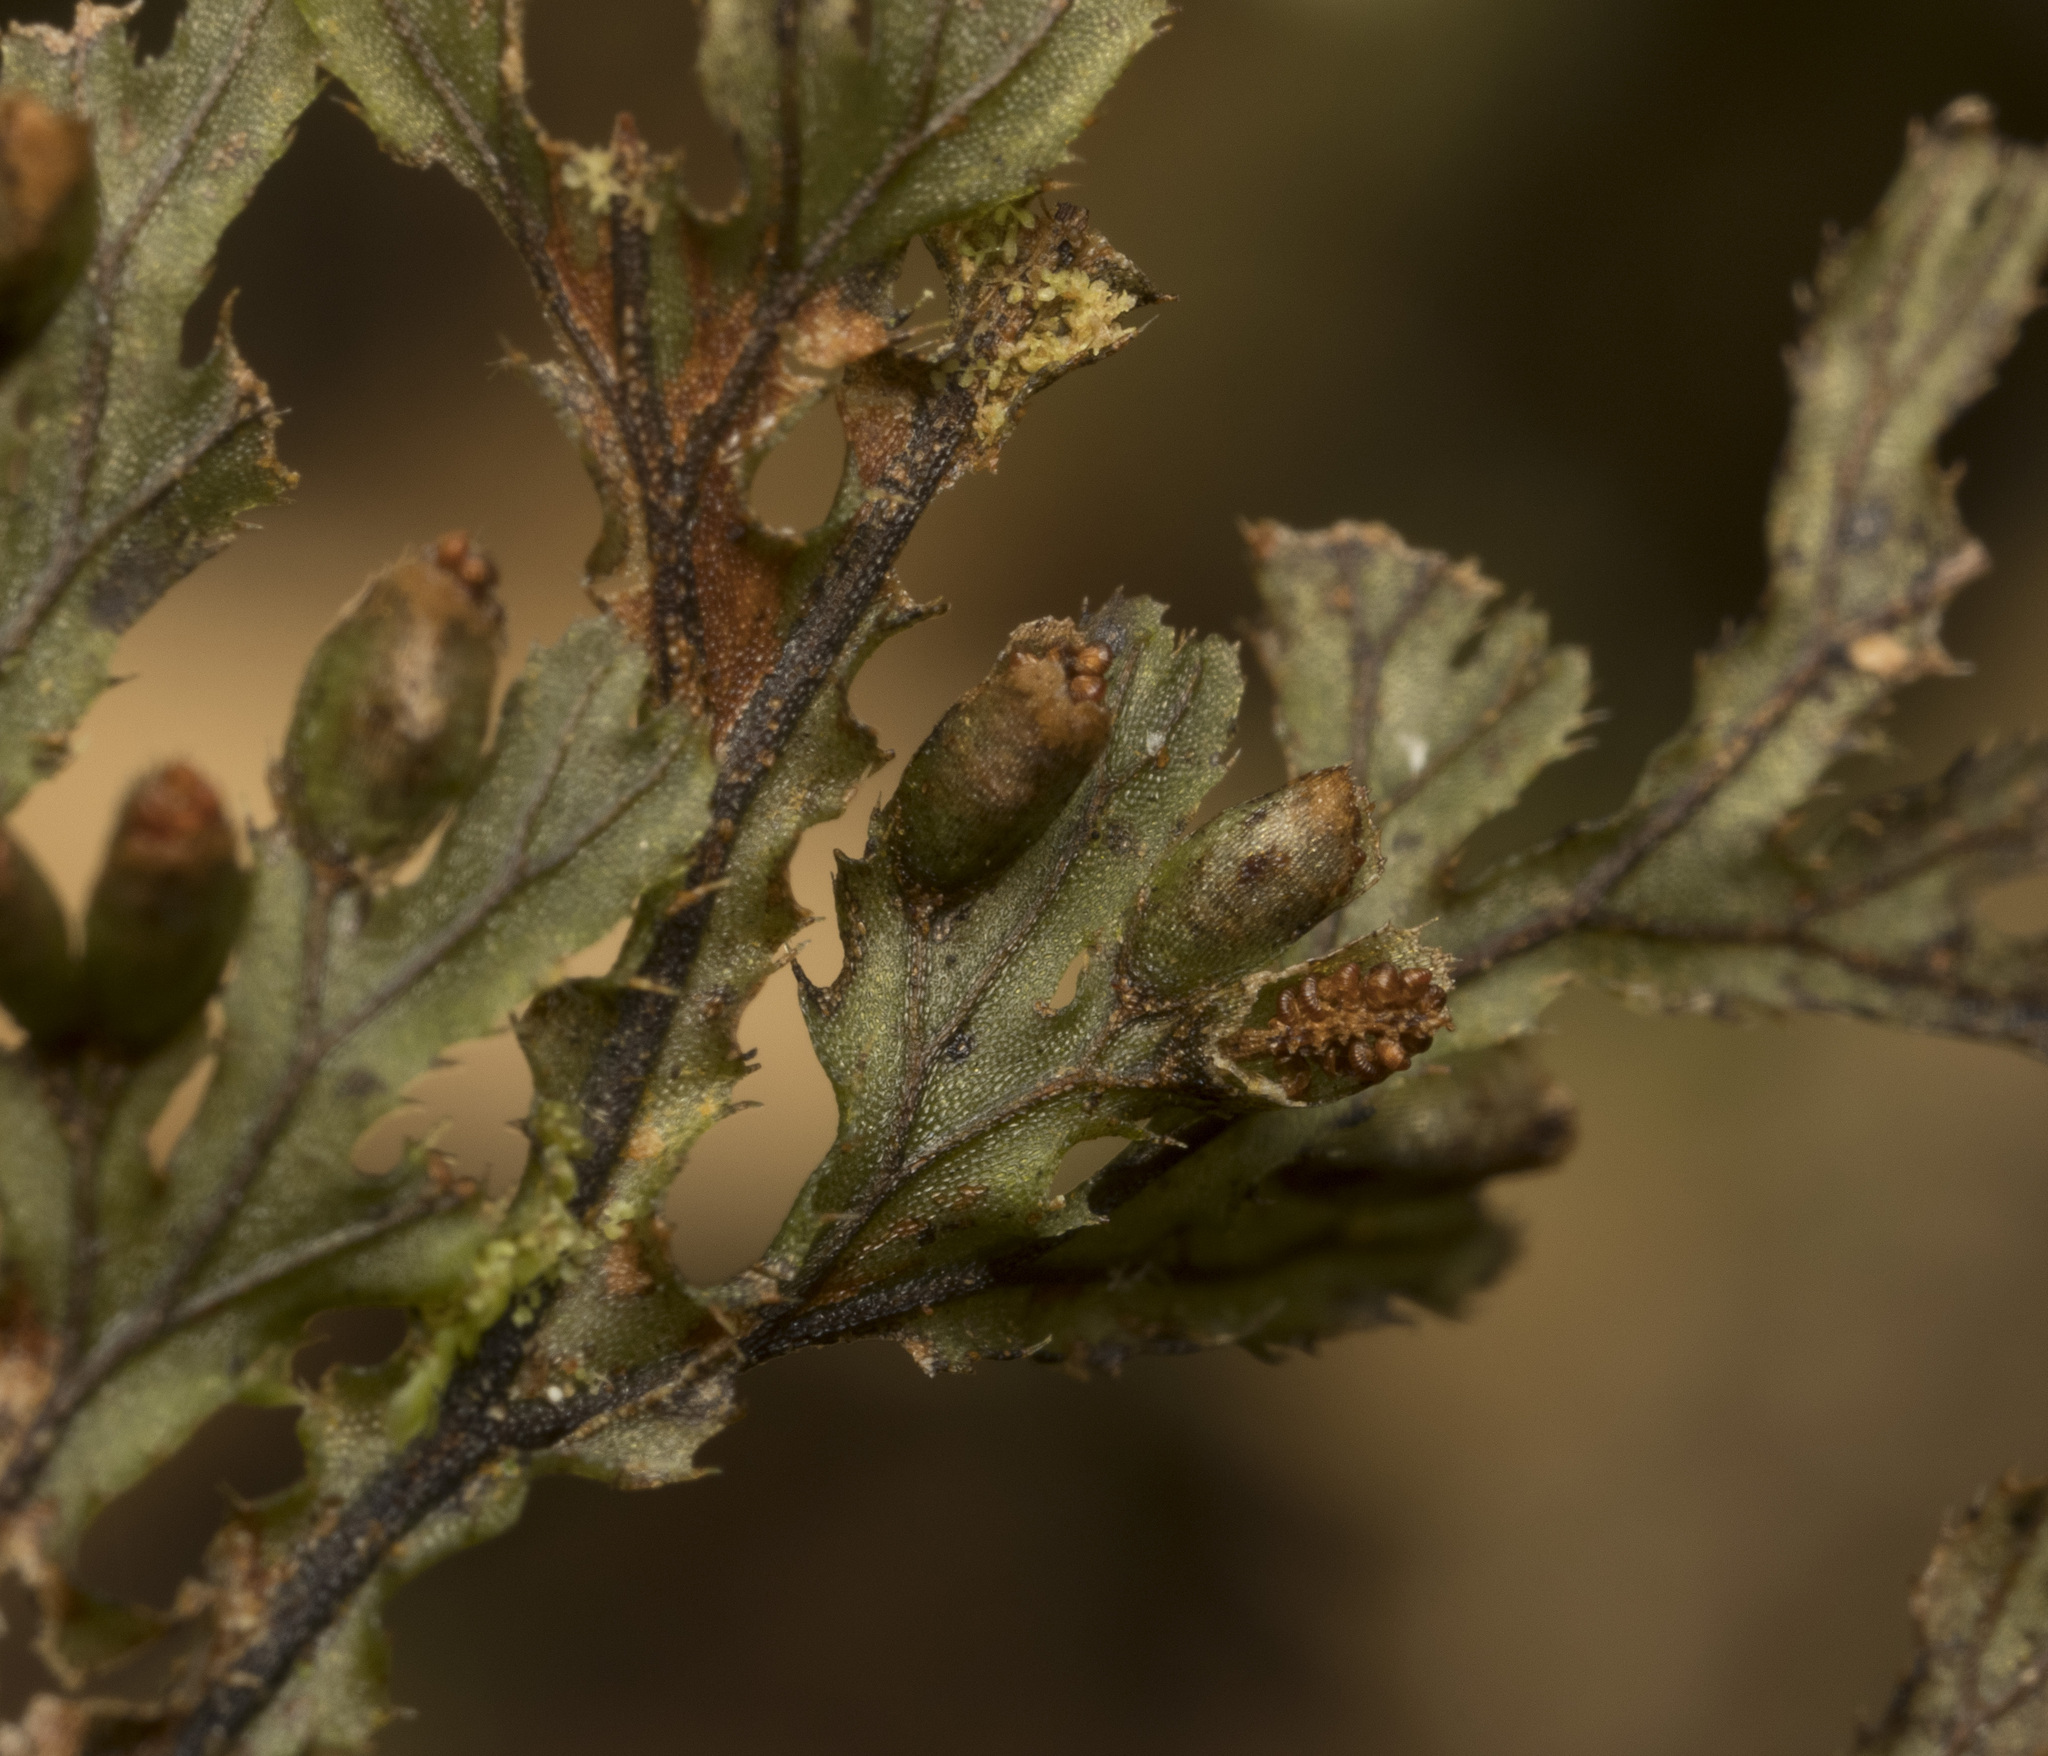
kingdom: Plantae
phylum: Tracheophyta
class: Polypodiopsida
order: Hymenophyllales
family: Hymenophyllaceae
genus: Hymenophyllum
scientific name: Hymenophyllum seselifolium
